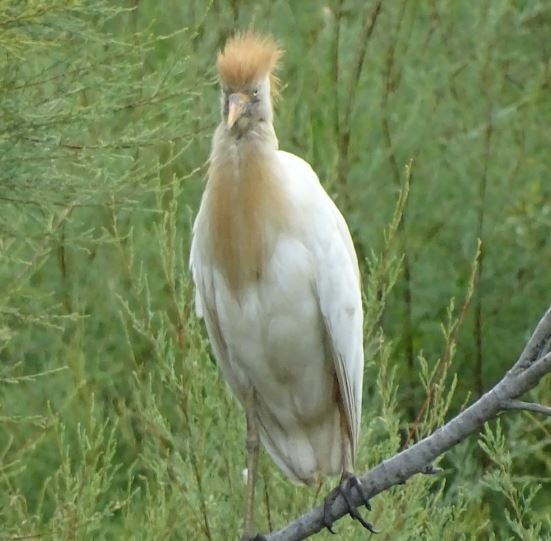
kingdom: Animalia
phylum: Chordata
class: Aves
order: Pelecaniformes
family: Ardeidae
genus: Bubulcus
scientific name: Bubulcus ibis
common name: Cattle egret
